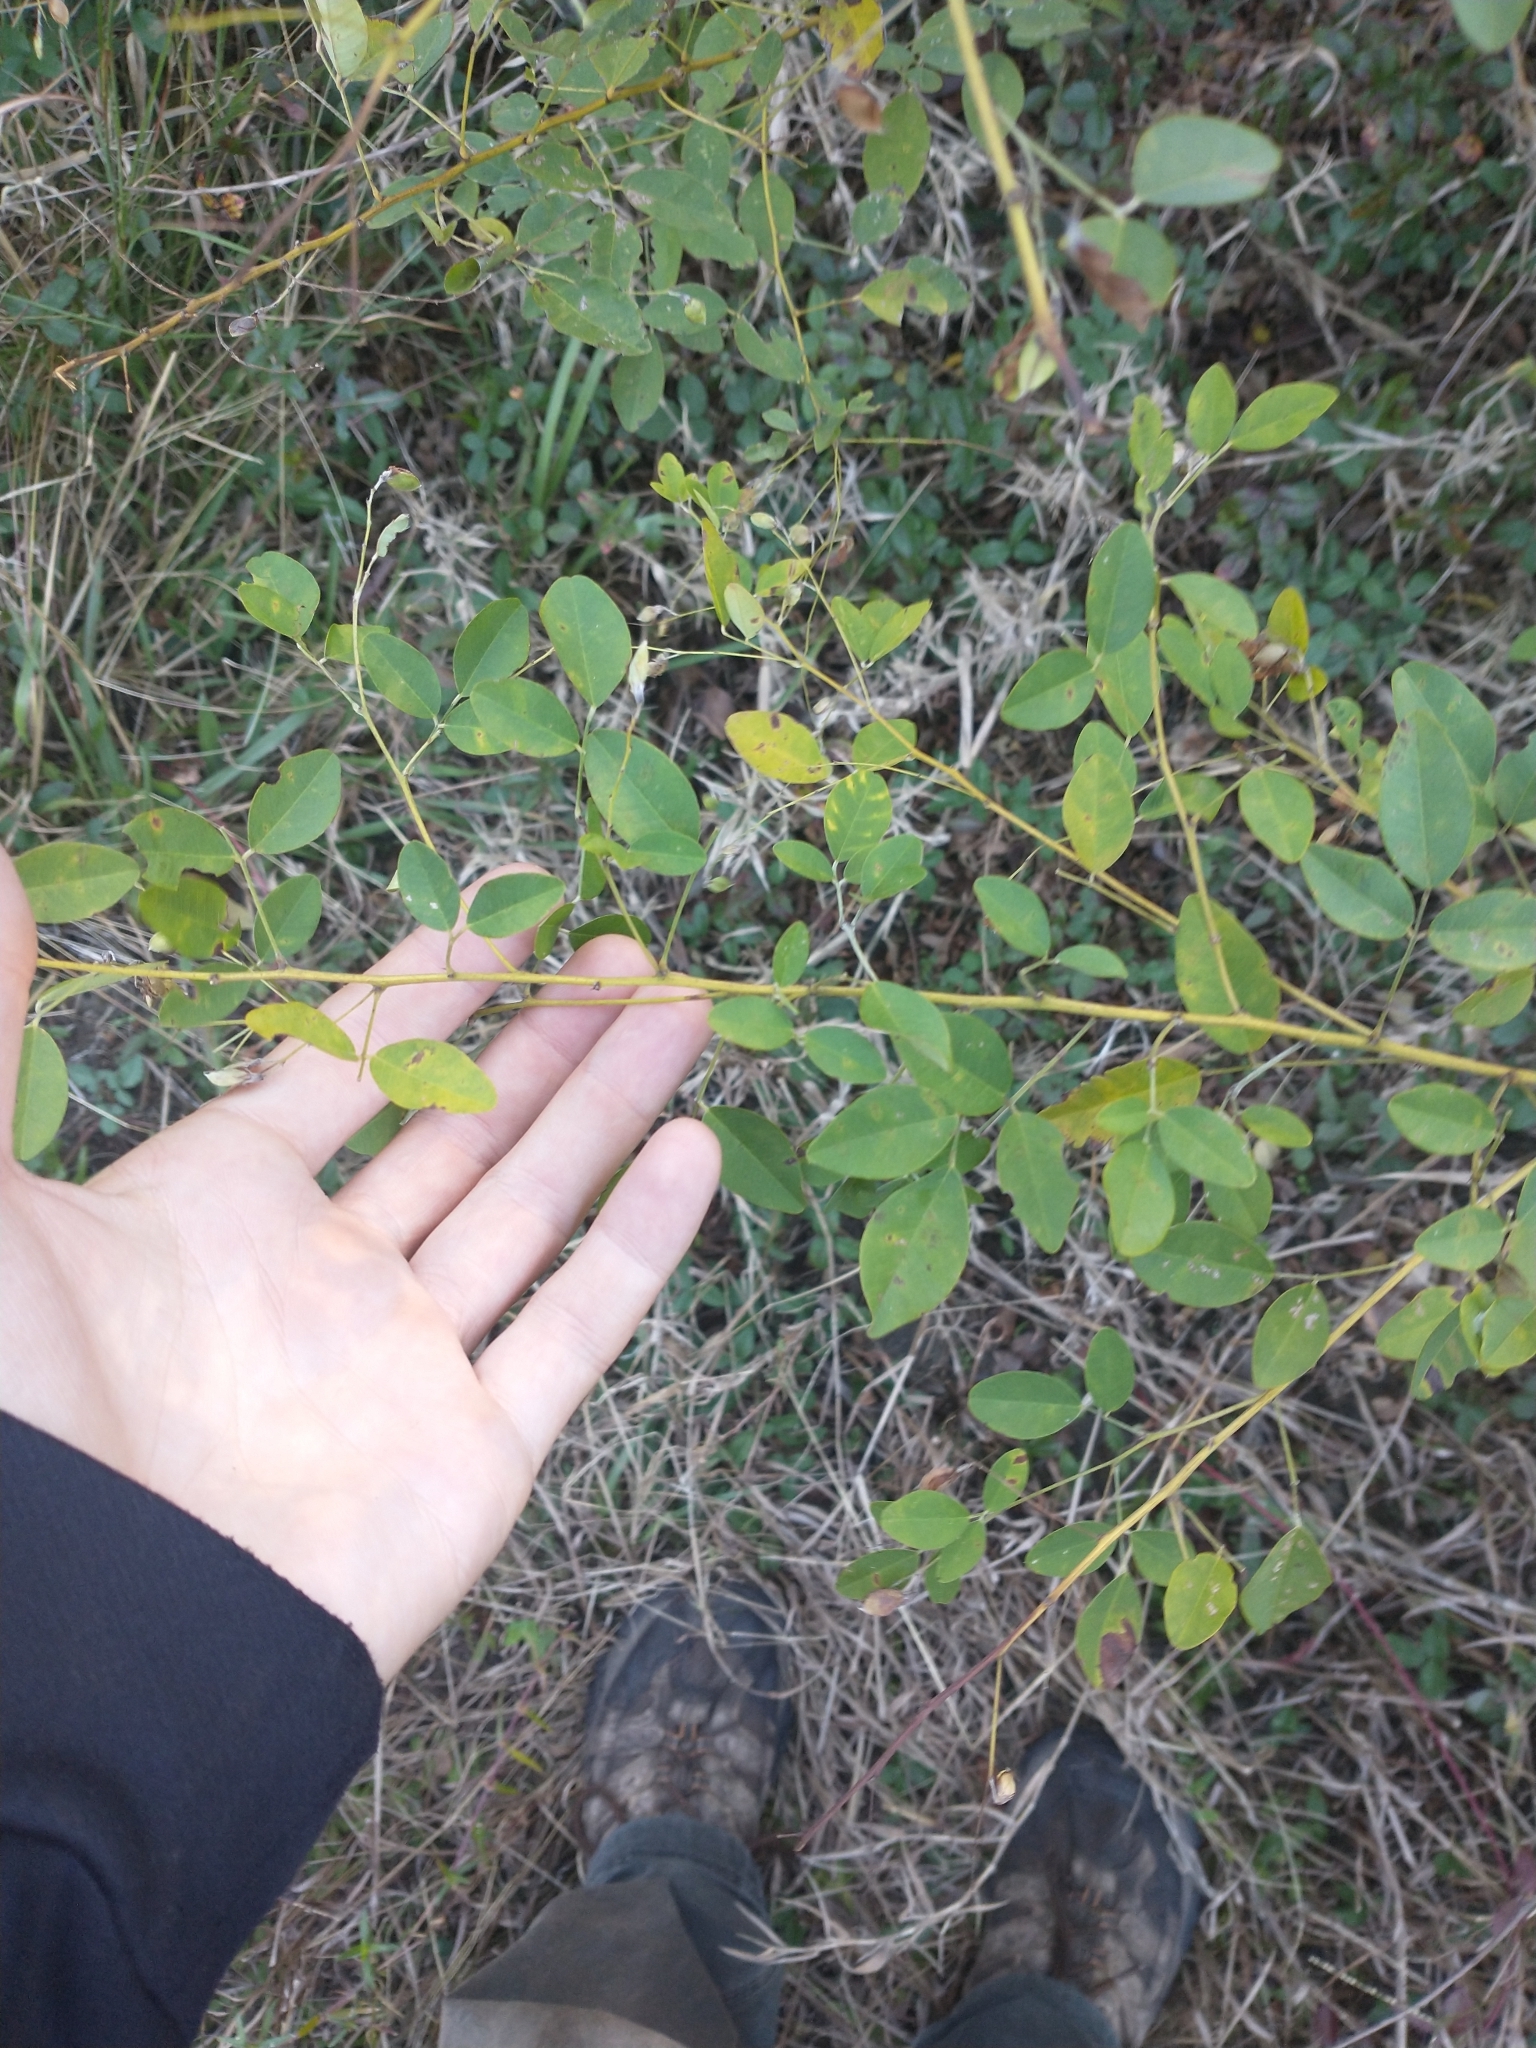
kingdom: Plantae
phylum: Tracheophyta
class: Magnoliopsida
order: Fabales
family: Fabaceae
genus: Lespedeza
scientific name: Lespedeza bicolor
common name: Shrub lespedeza
